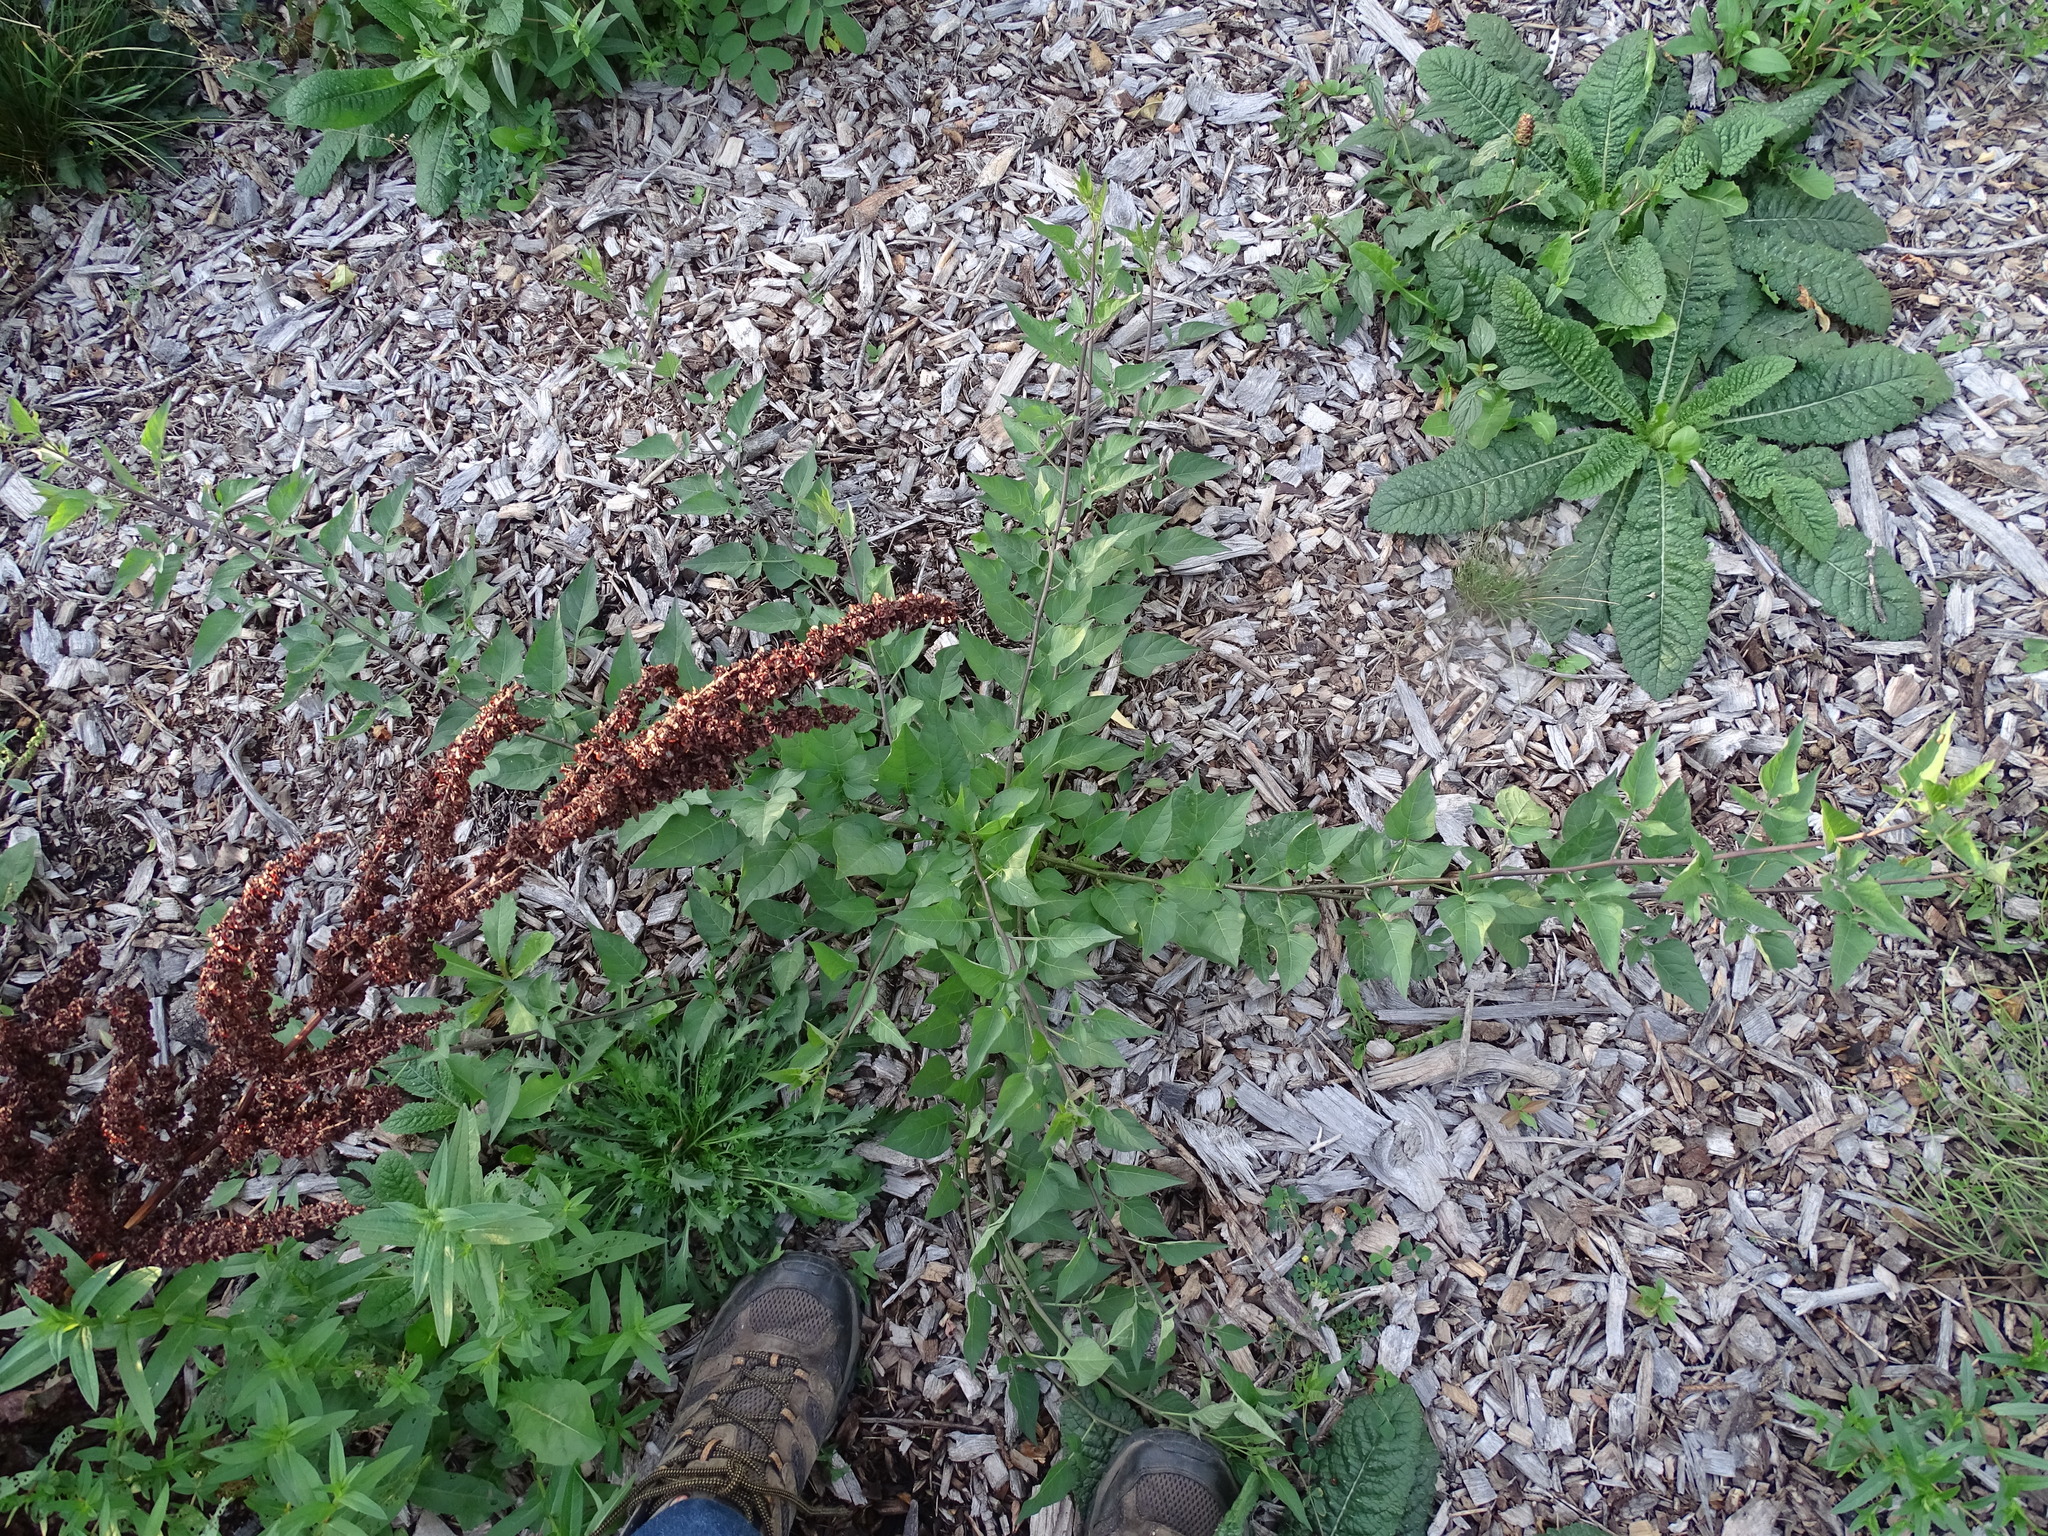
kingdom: Plantae
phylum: Tracheophyta
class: Magnoliopsida
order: Solanales
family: Solanaceae
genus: Solanum
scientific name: Solanum dulcamara
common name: Climbing nightshade
